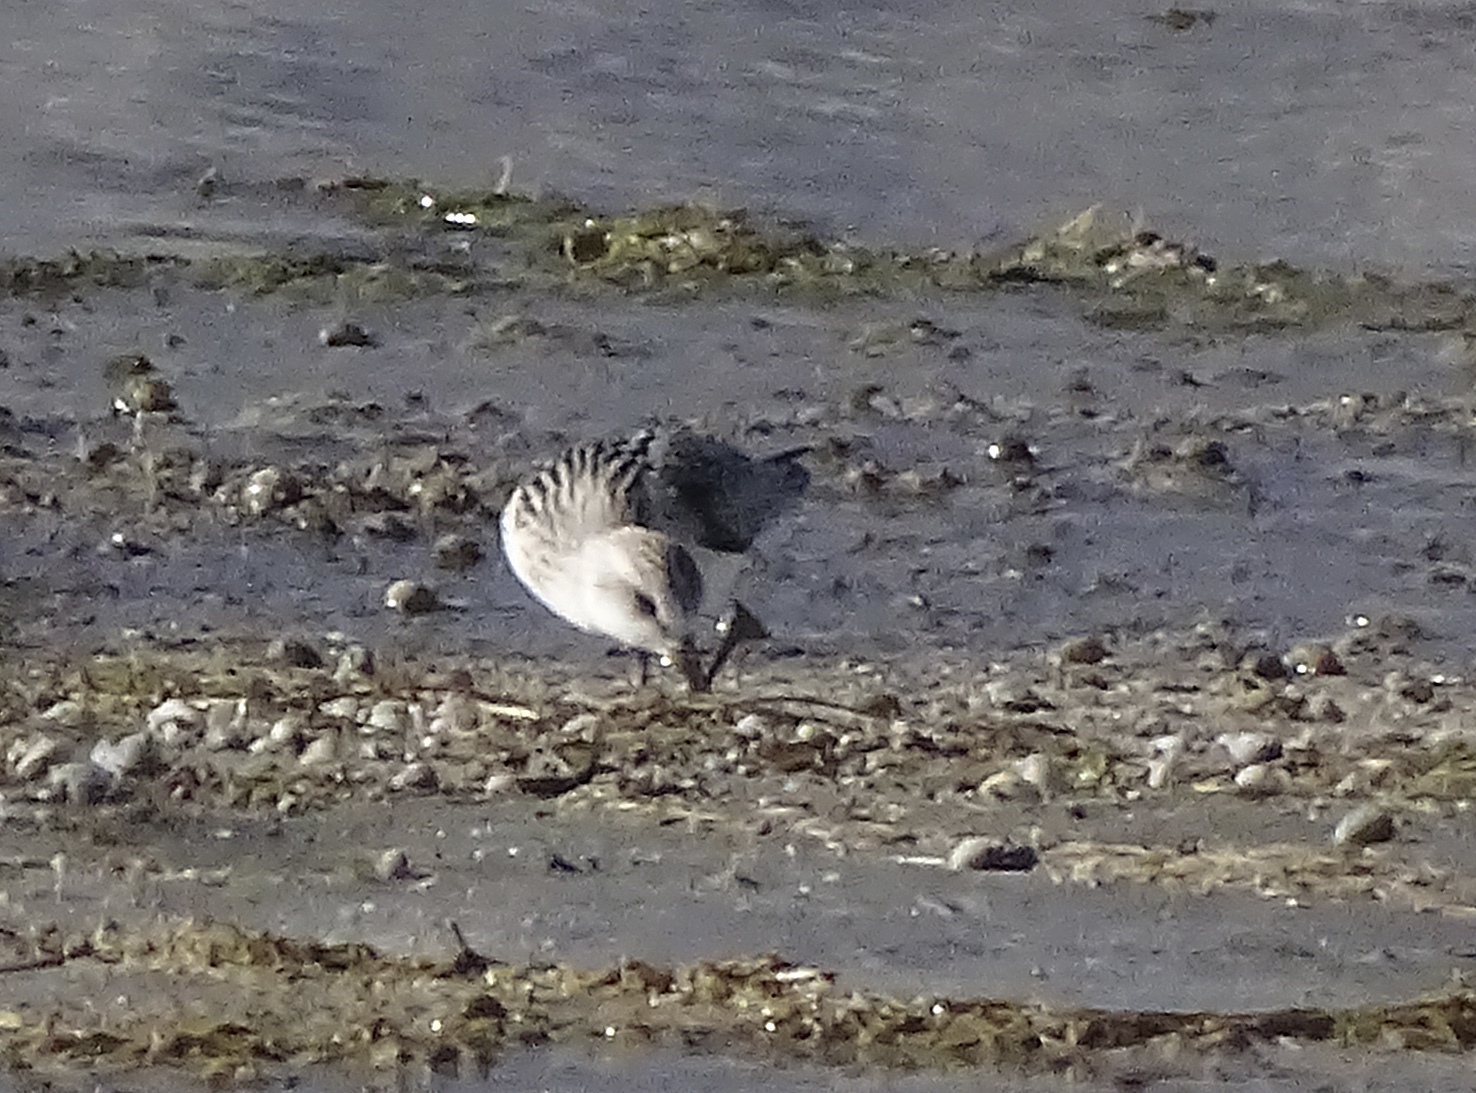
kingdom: Animalia
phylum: Chordata
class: Aves
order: Charadriiformes
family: Scolopacidae
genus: Calidris
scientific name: Calidris alba
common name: Sanderling
